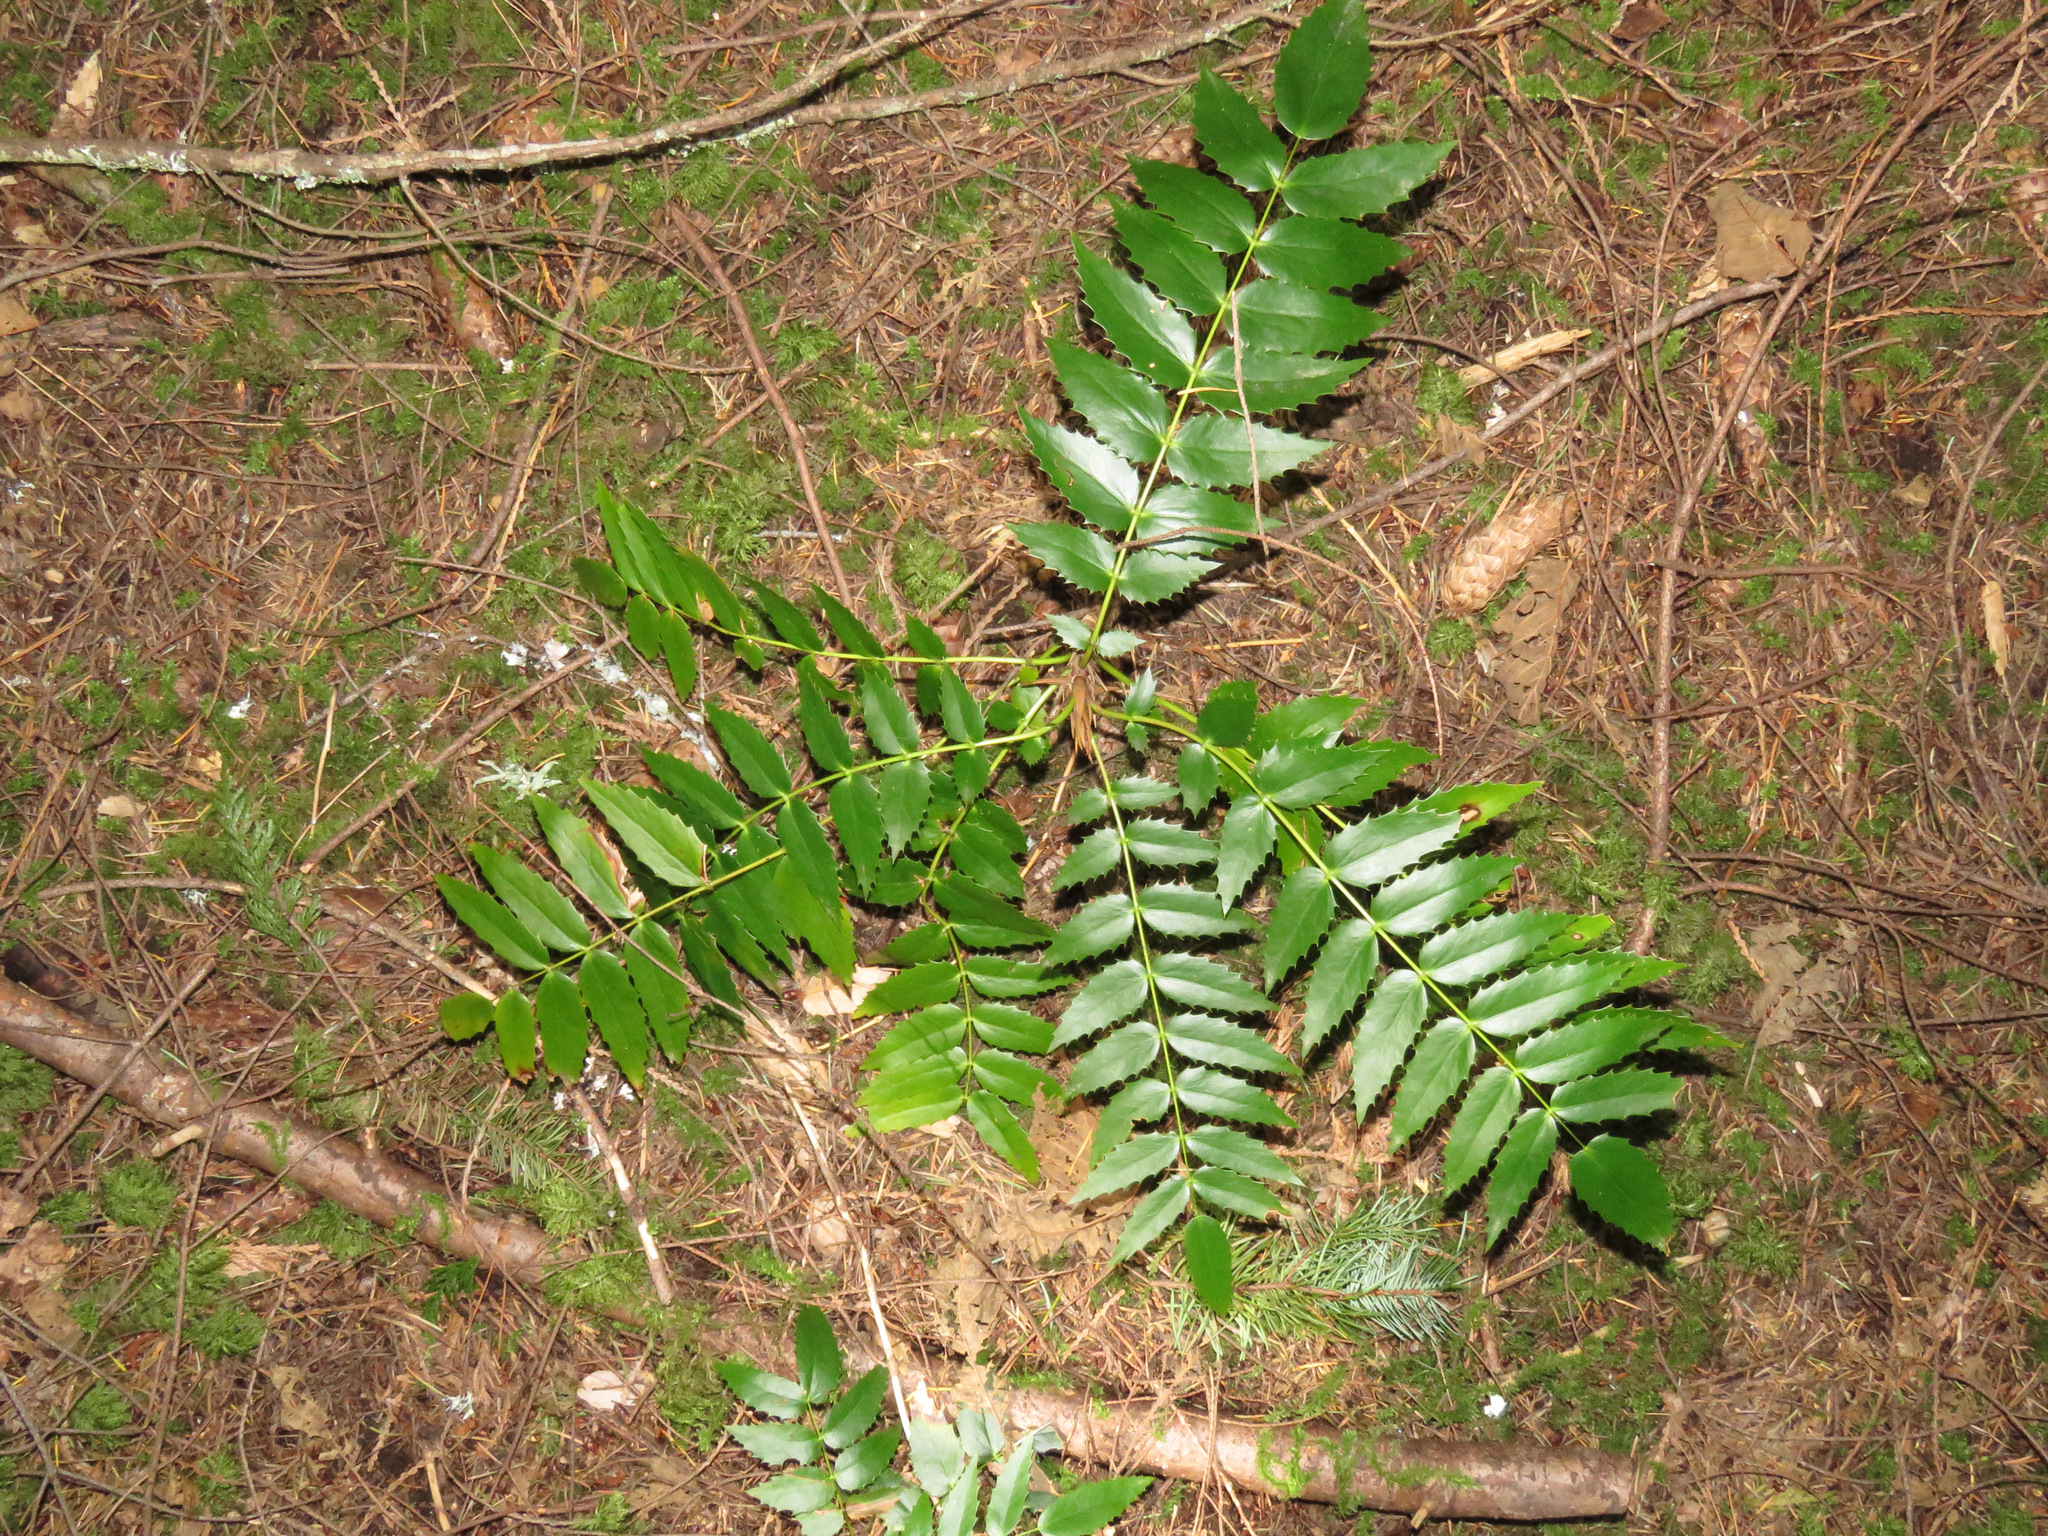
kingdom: Plantae
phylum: Tracheophyta
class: Magnoliopsida
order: Ranunculales
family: Berberidaceae
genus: Mahonia
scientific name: Mahonia nervosa
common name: Cascade oregon-grape
